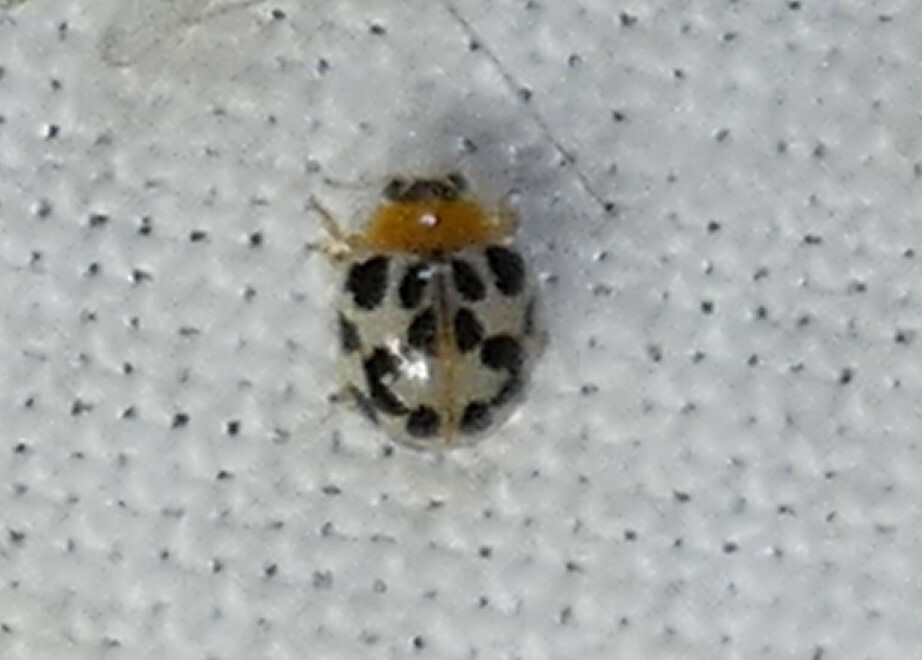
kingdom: Animalia
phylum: Arthropoda
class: Insecta
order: Coleoptera
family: Coccinellidae
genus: Psyllobora
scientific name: Psyllobora parvinotata
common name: Small-spotted psyllobora
